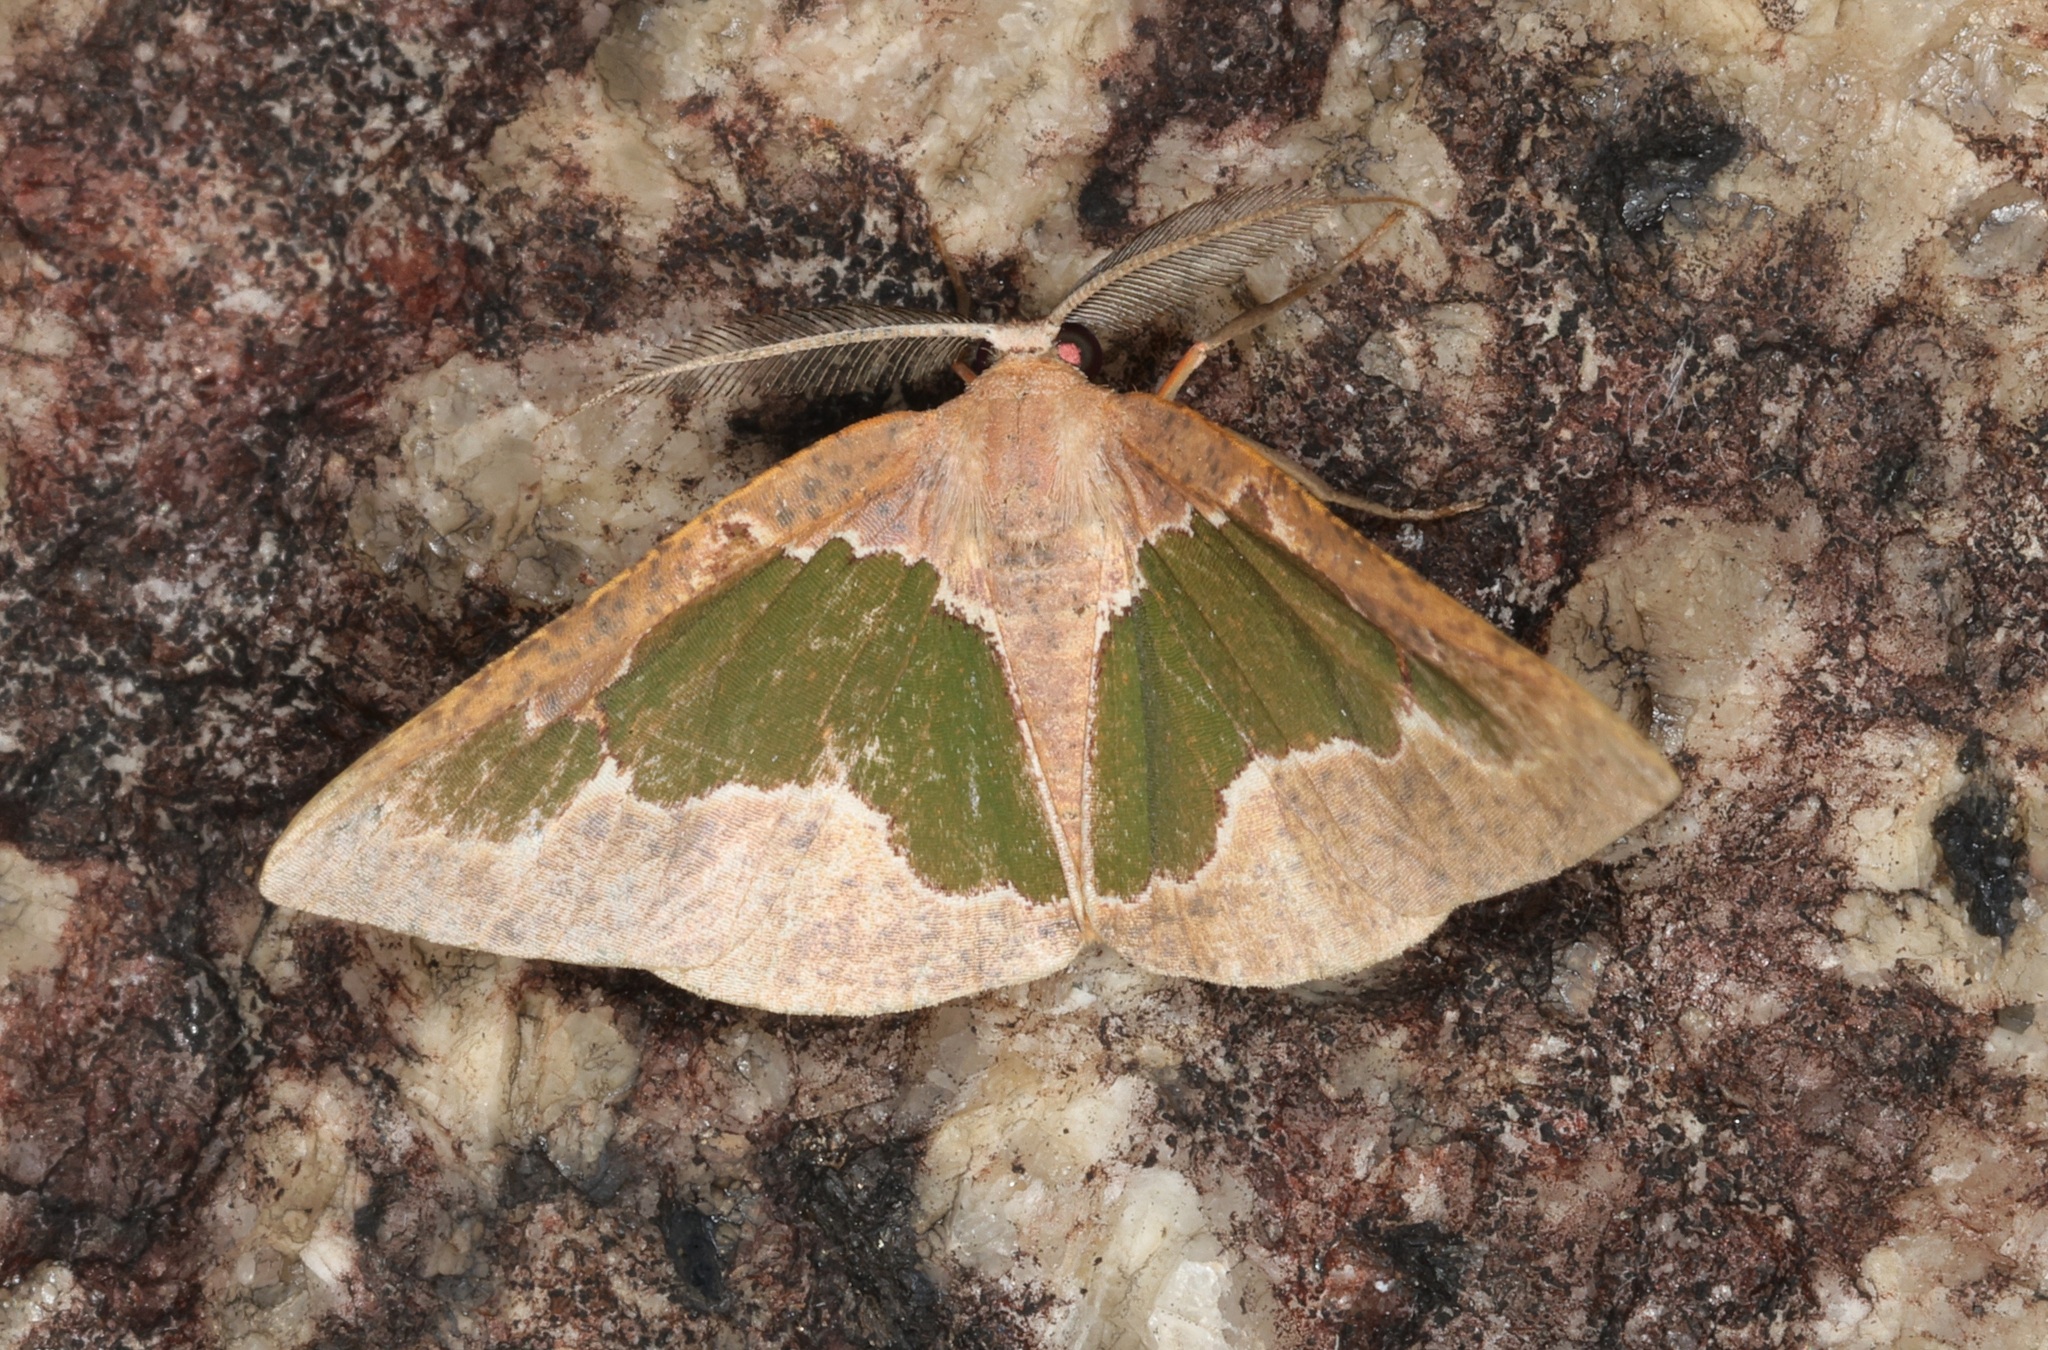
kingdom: Animalia
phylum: Arthropoda
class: Insecta
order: Lepidoptera
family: Geometridae
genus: Celenna
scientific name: Celenna festivaria
